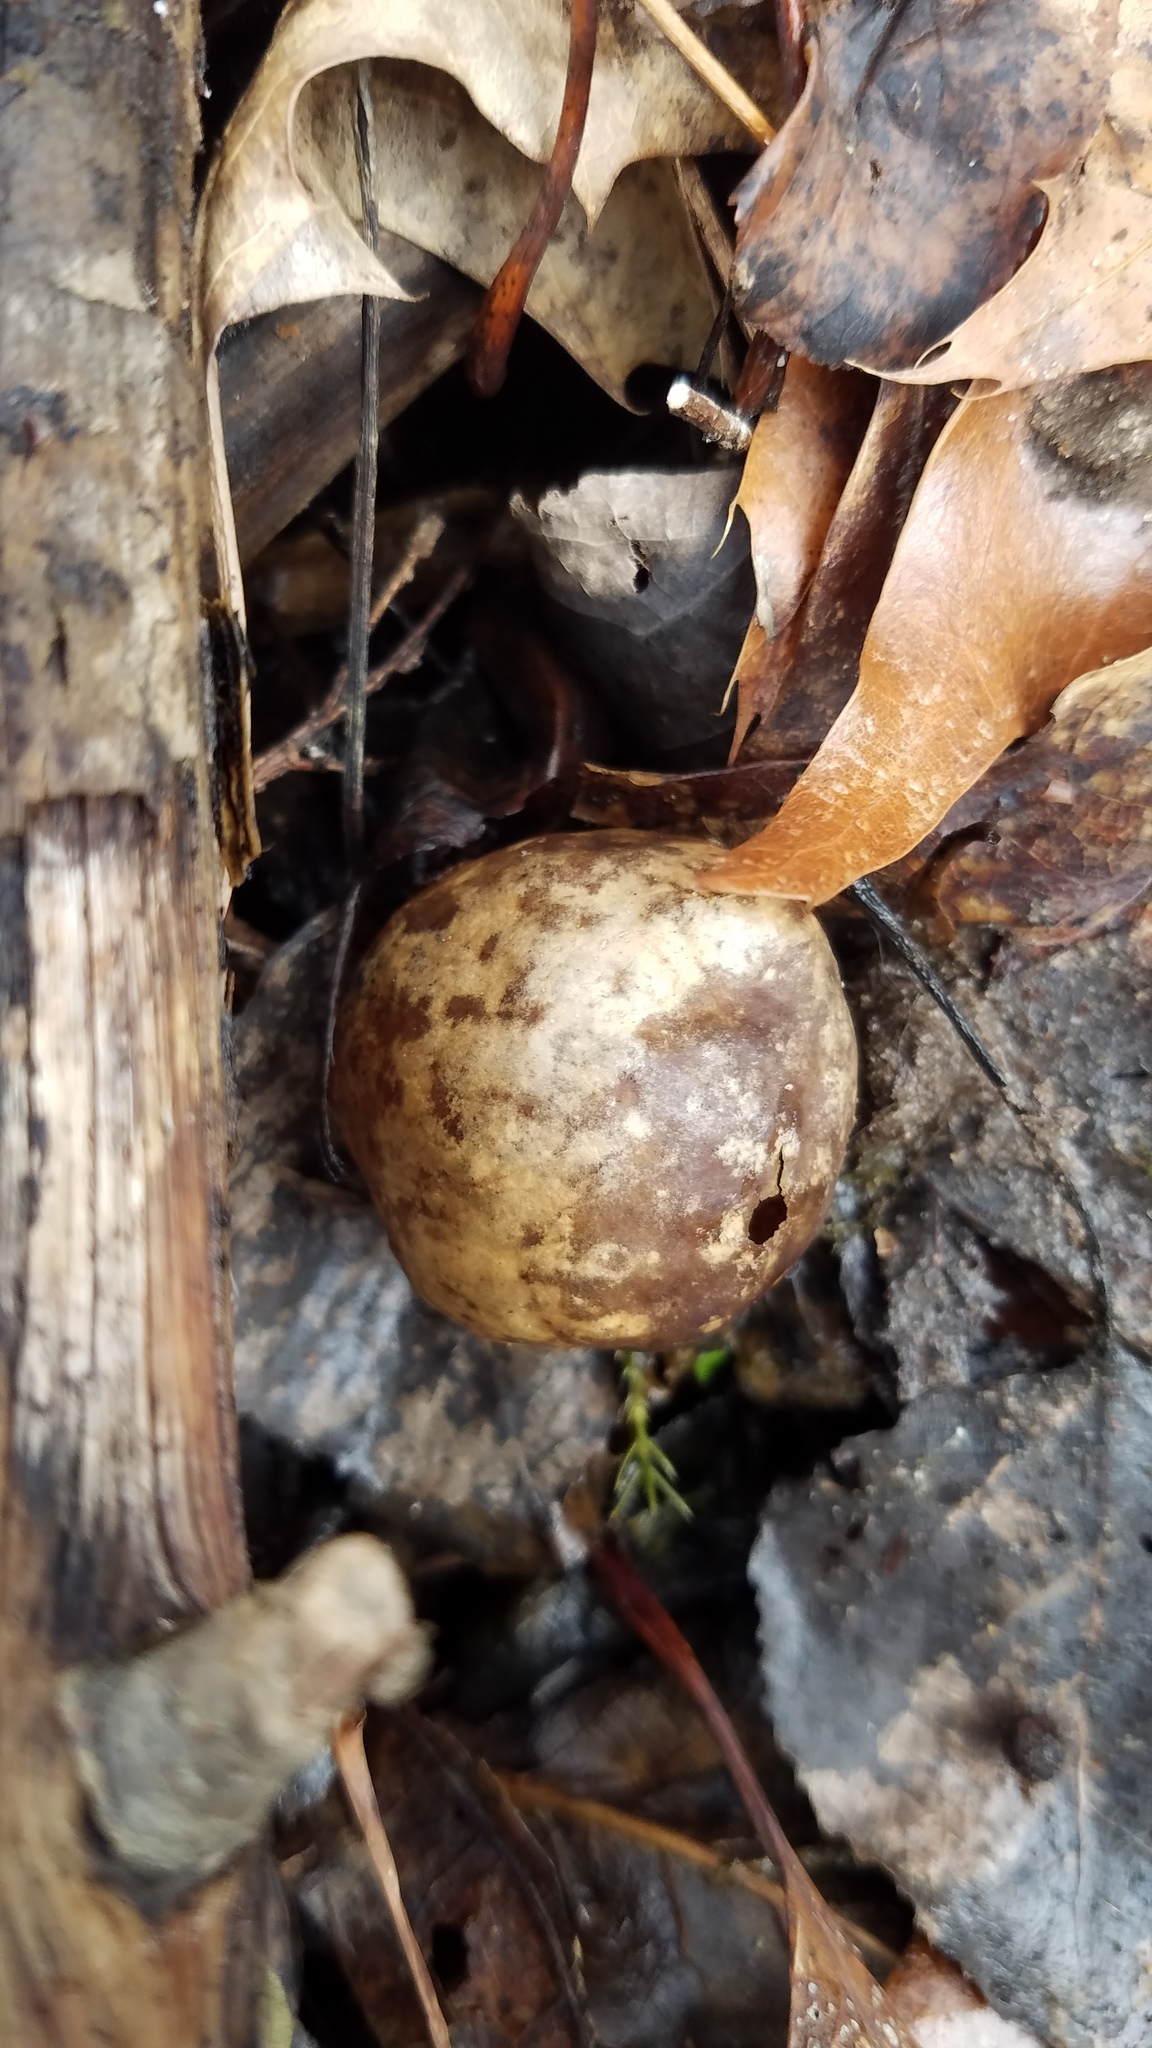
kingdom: Animalia
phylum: Arthropoda
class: Insecta
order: Hymenoptera
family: Cynipidae
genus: Amphibolips
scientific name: Amphibolips
